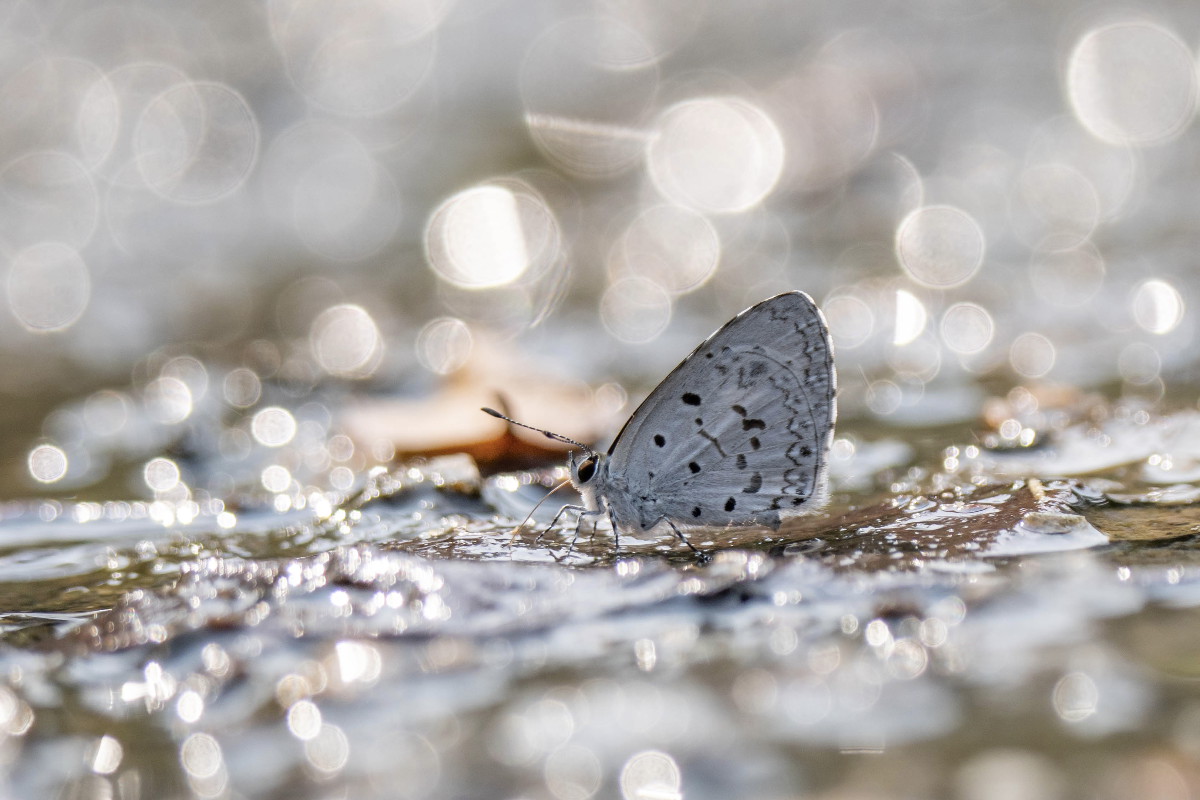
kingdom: Animalia
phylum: Arthropoda
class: Insecta
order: Lepidoptera
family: Lycaenidae
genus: Acytolepis
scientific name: Acytolepis puspa
